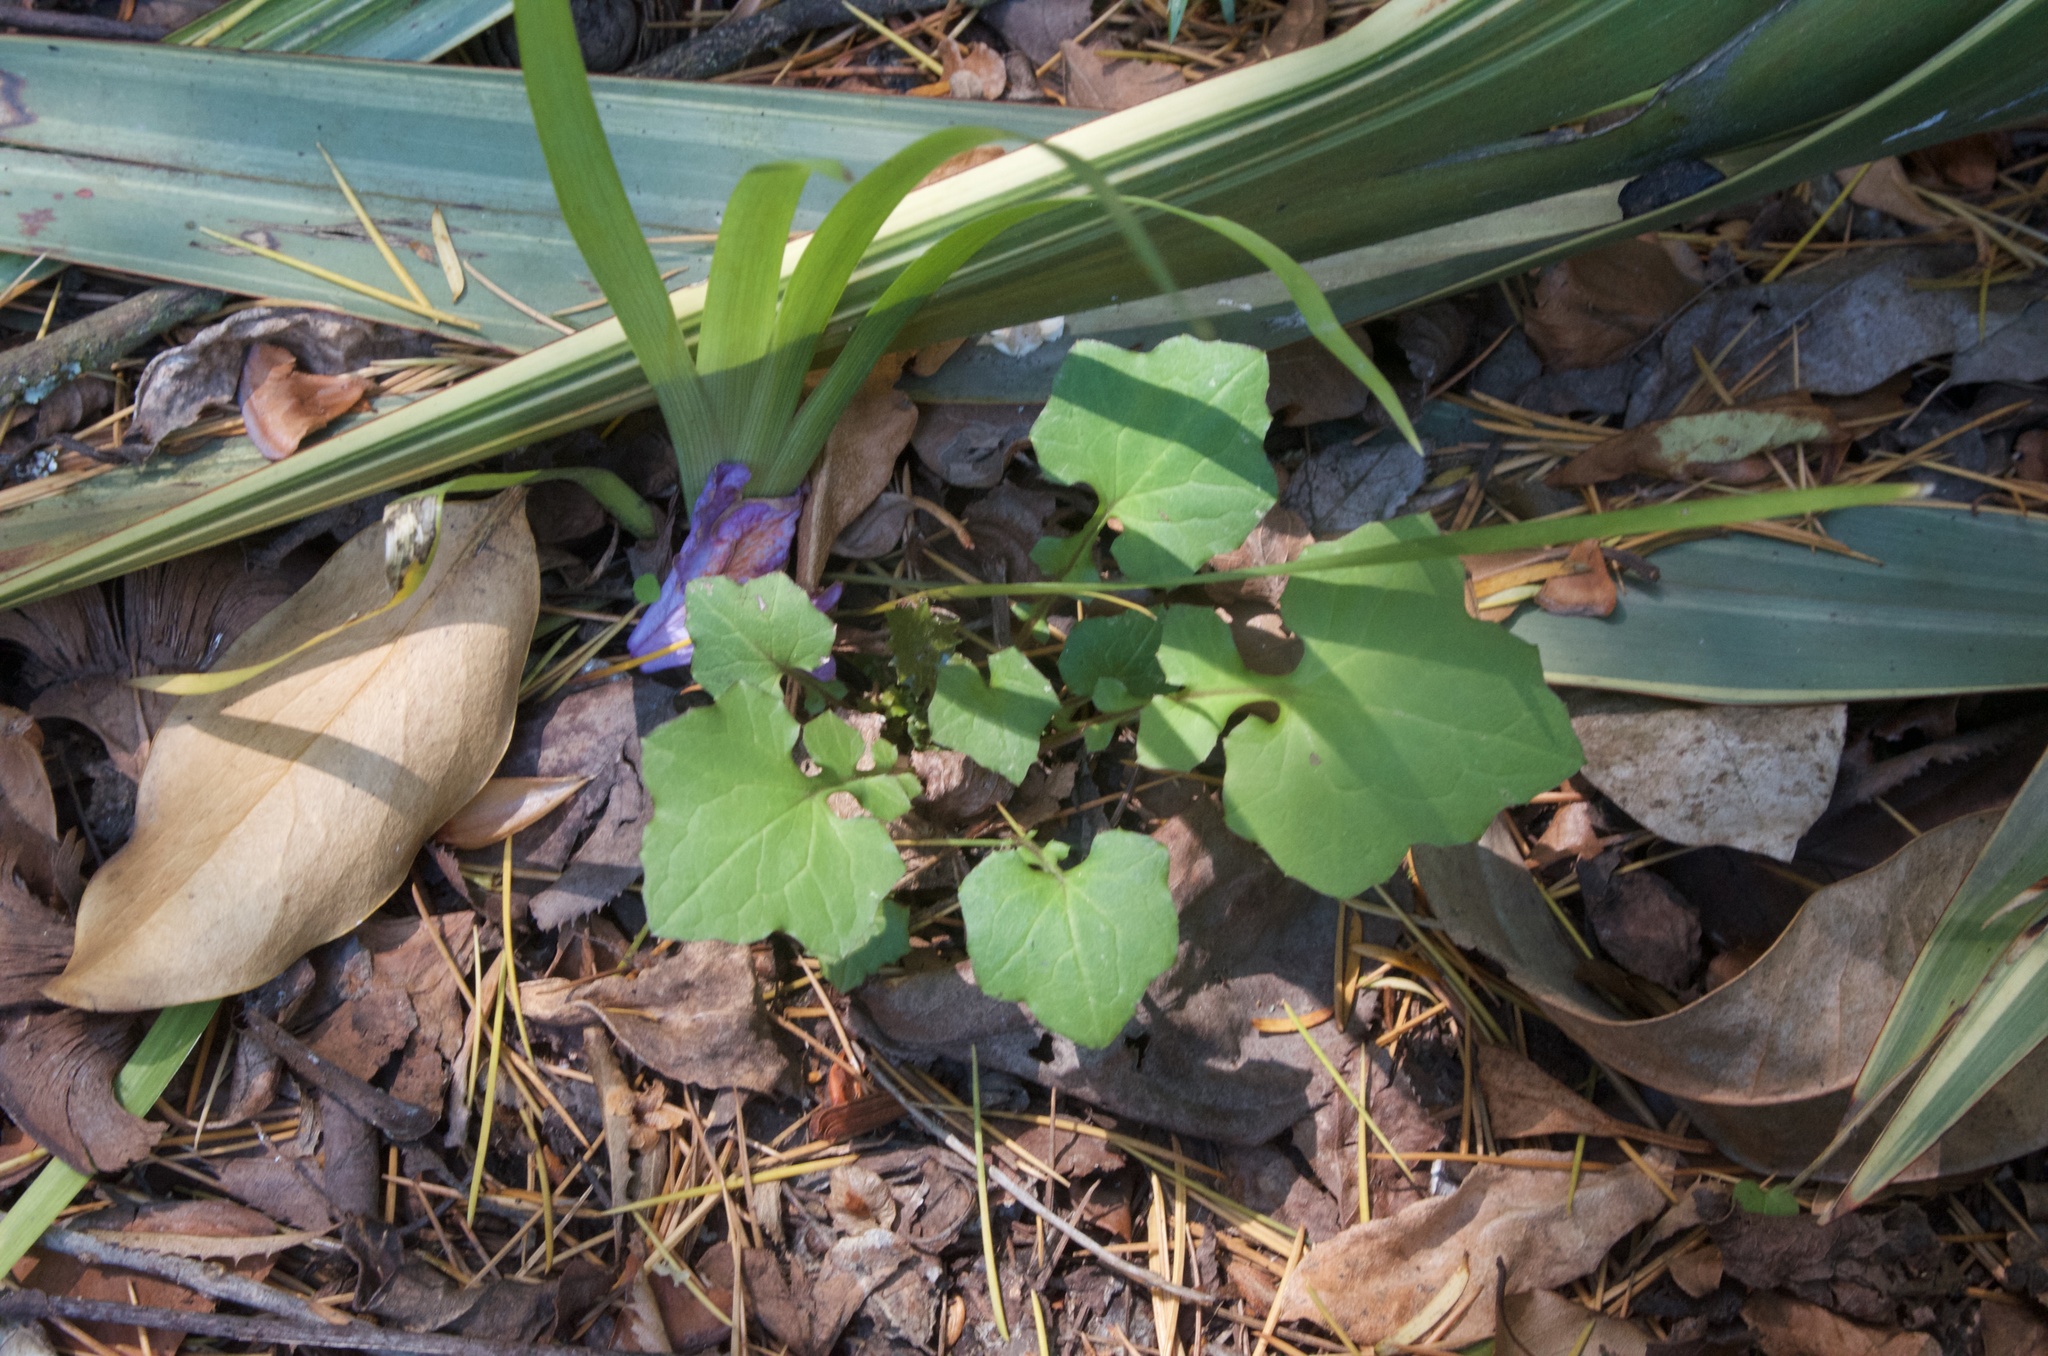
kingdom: Plantae
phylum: Tracheophyta
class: Magnoliopsida
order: Asterales
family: Asteraceae
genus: Mycelis
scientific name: Mycelis muralis
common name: Wall lettuce
